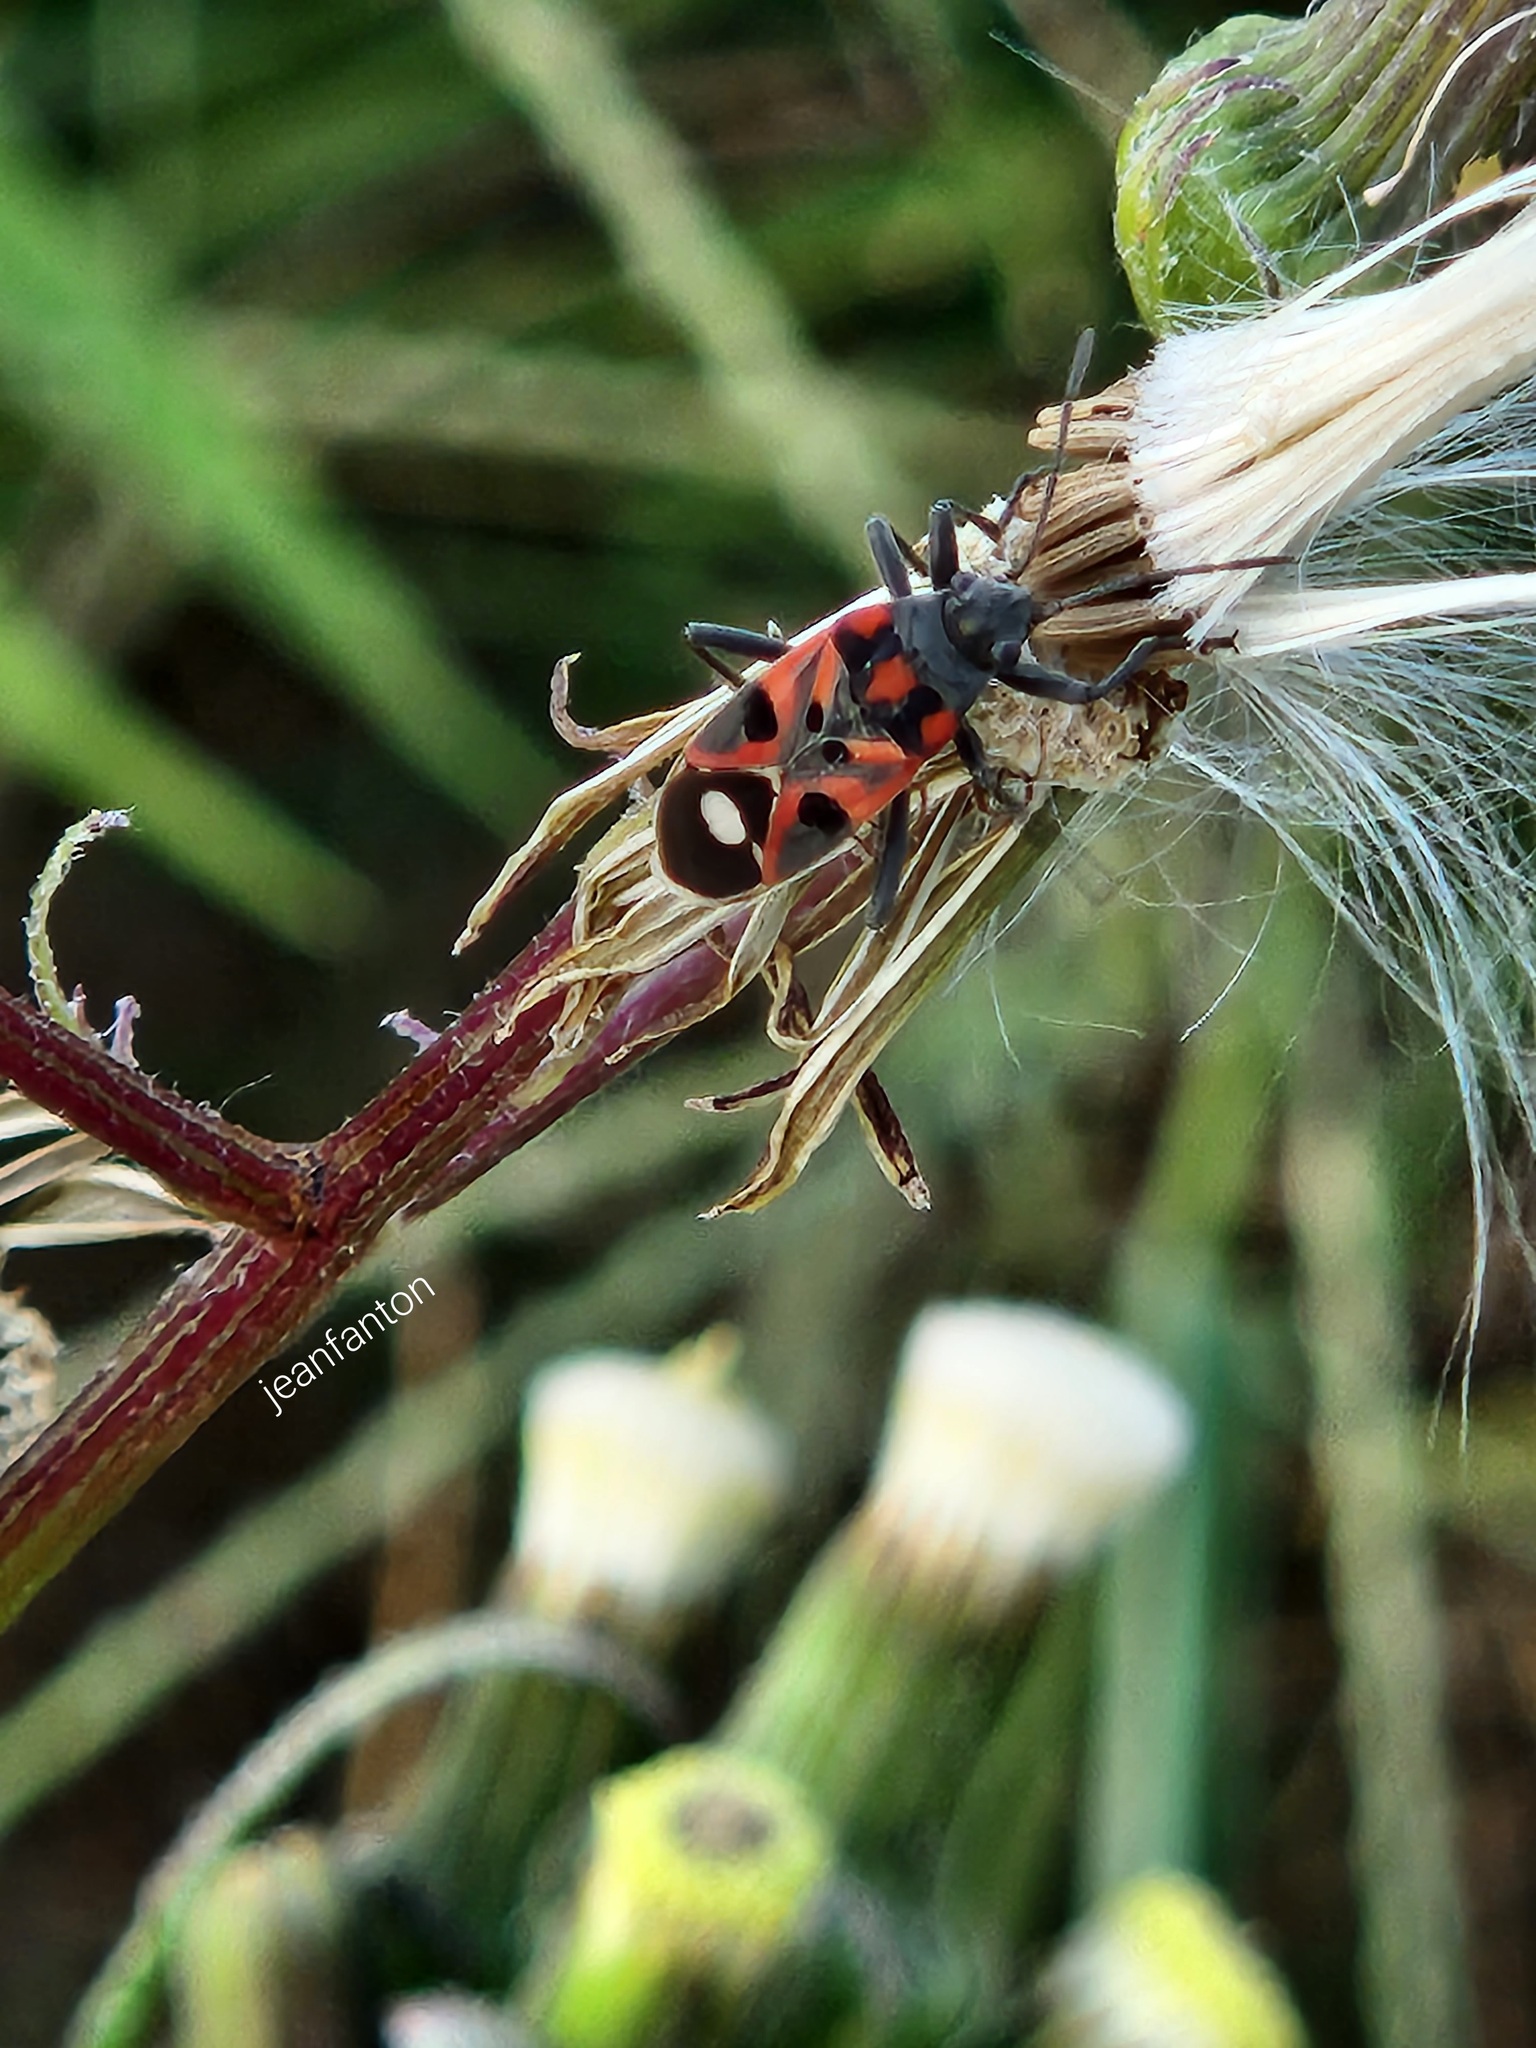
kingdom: Animalia
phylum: Arthropoda
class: Insecta
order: Hemiptera
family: Lygaeidae
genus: Lygaeus
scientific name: Lygaeus alboornatus
